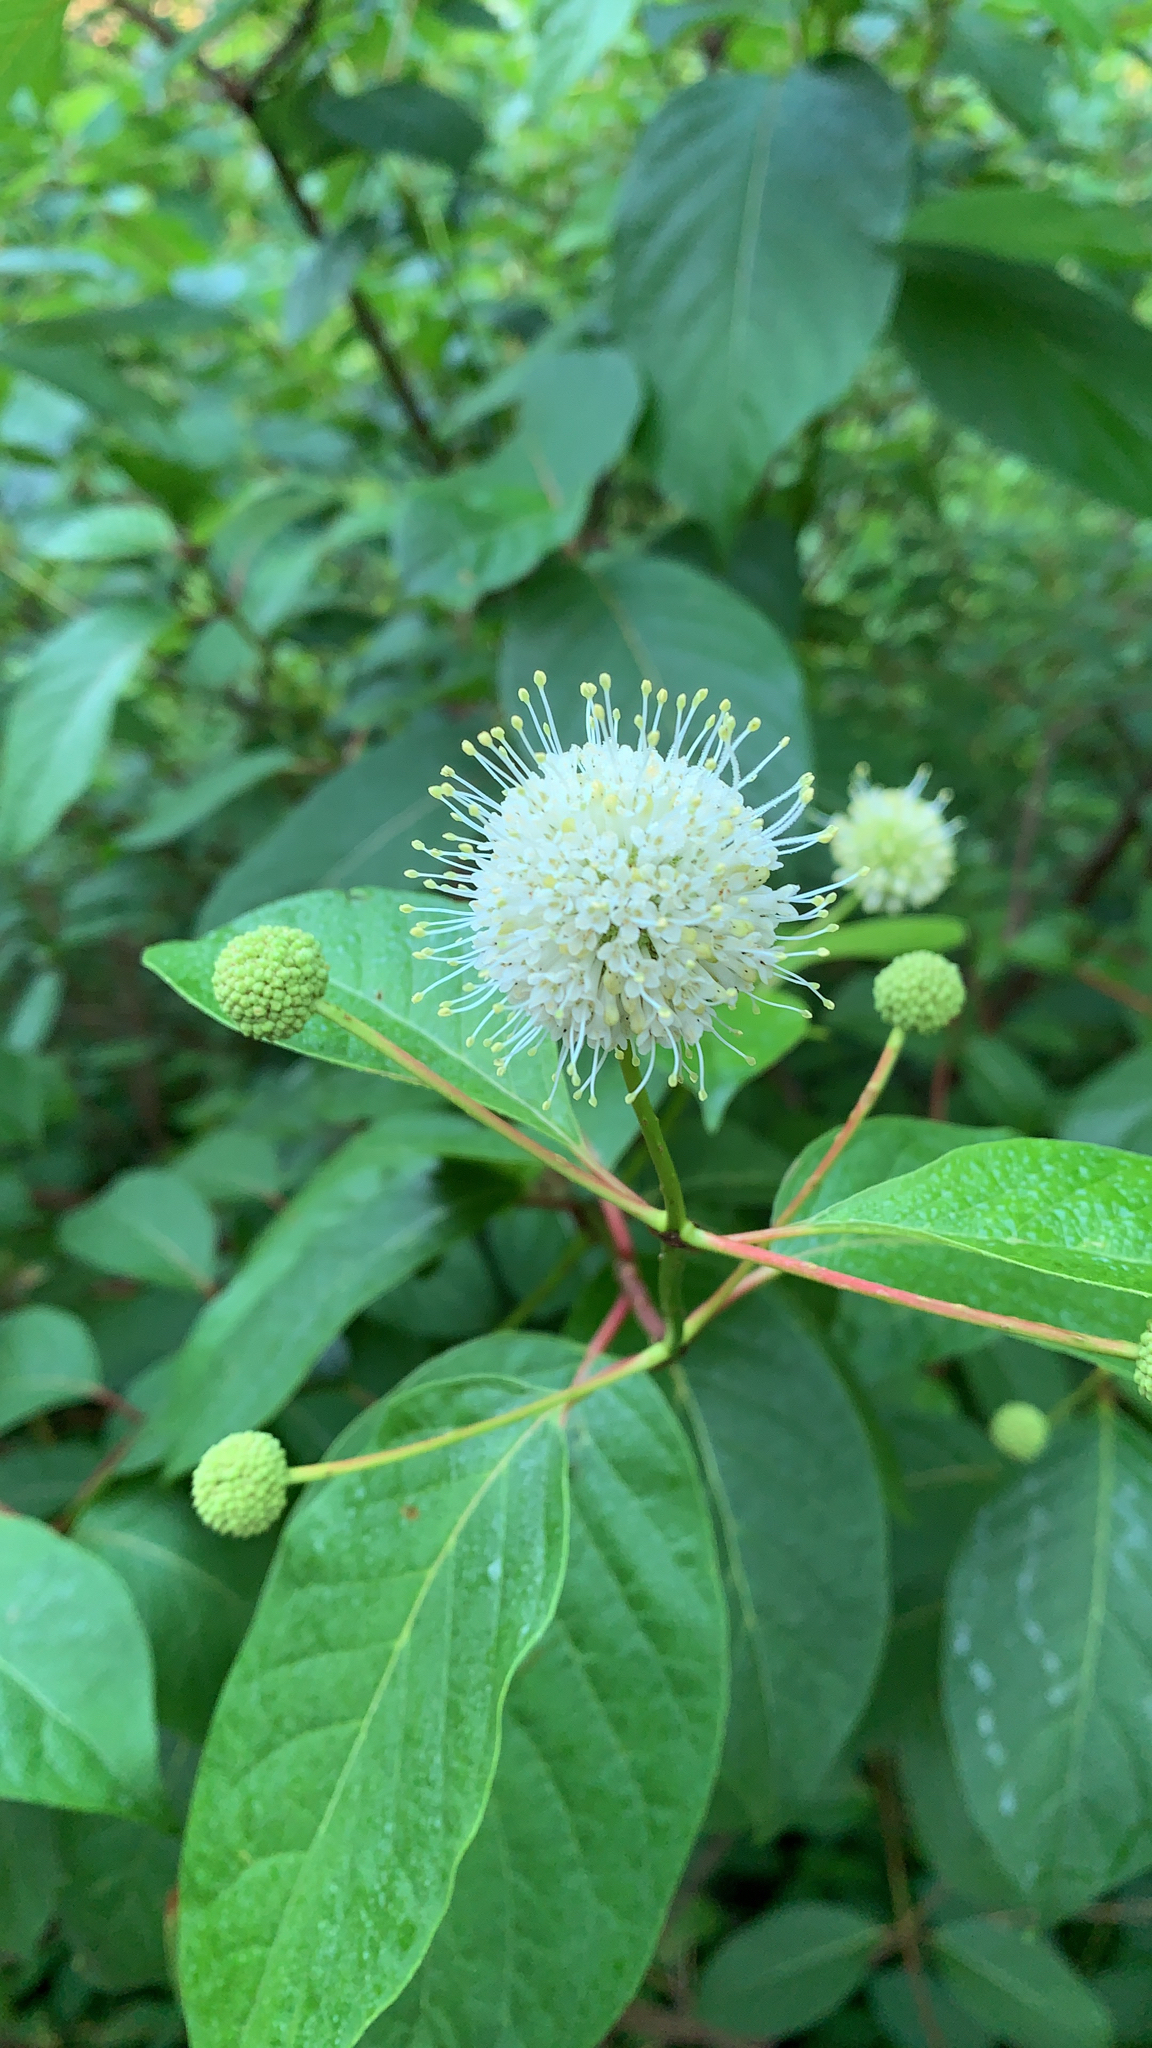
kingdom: Plantae
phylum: Tracheophyta
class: Magnoliopsida
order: Gentianales
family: Rubiaceae
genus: Cephalanthus
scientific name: Cephalanthus occidentalis
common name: Button-willow
